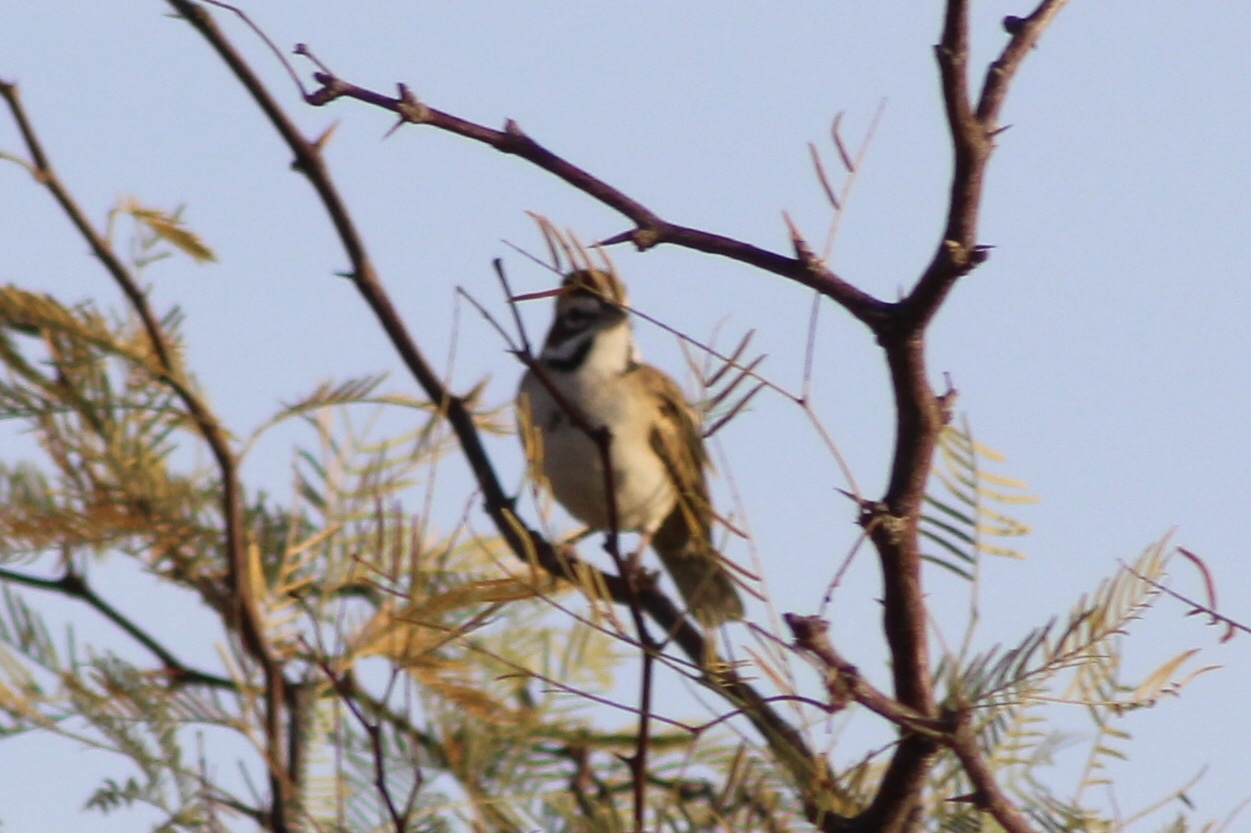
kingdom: Animalia
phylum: Chordata
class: Aves
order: Passeriformes
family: Passerellidae
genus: Chondestes
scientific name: Chondestes grammacus
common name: Lark sparrow
